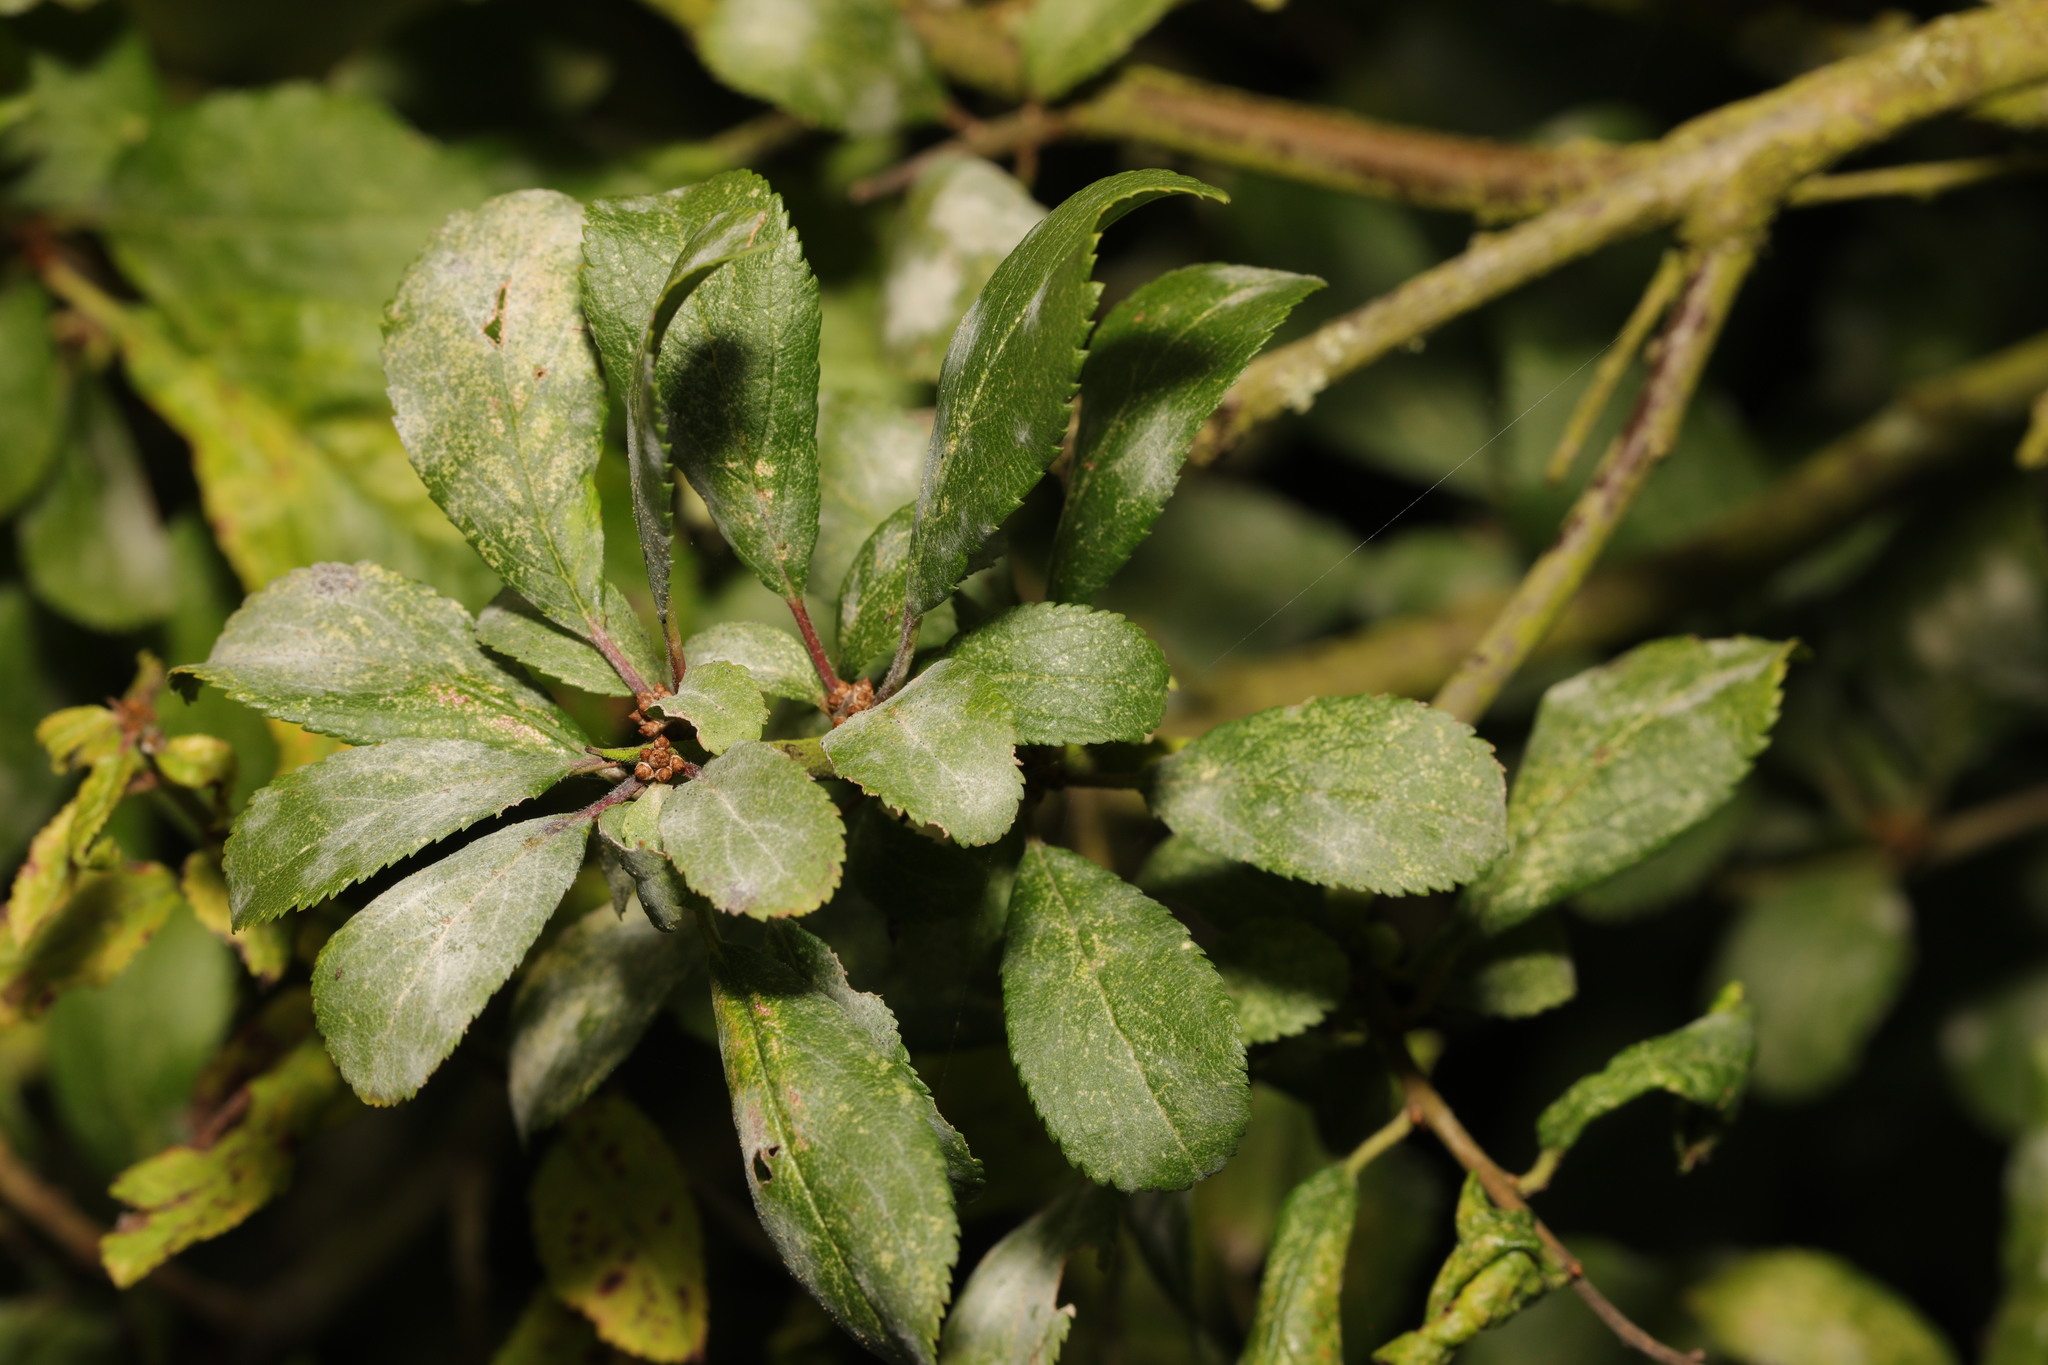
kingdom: Fungi
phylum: Ascomycota
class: Leotiomycetes
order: Helotiales
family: Erysiphaceae
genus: Podosphaera
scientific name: Podosphaera ampla
